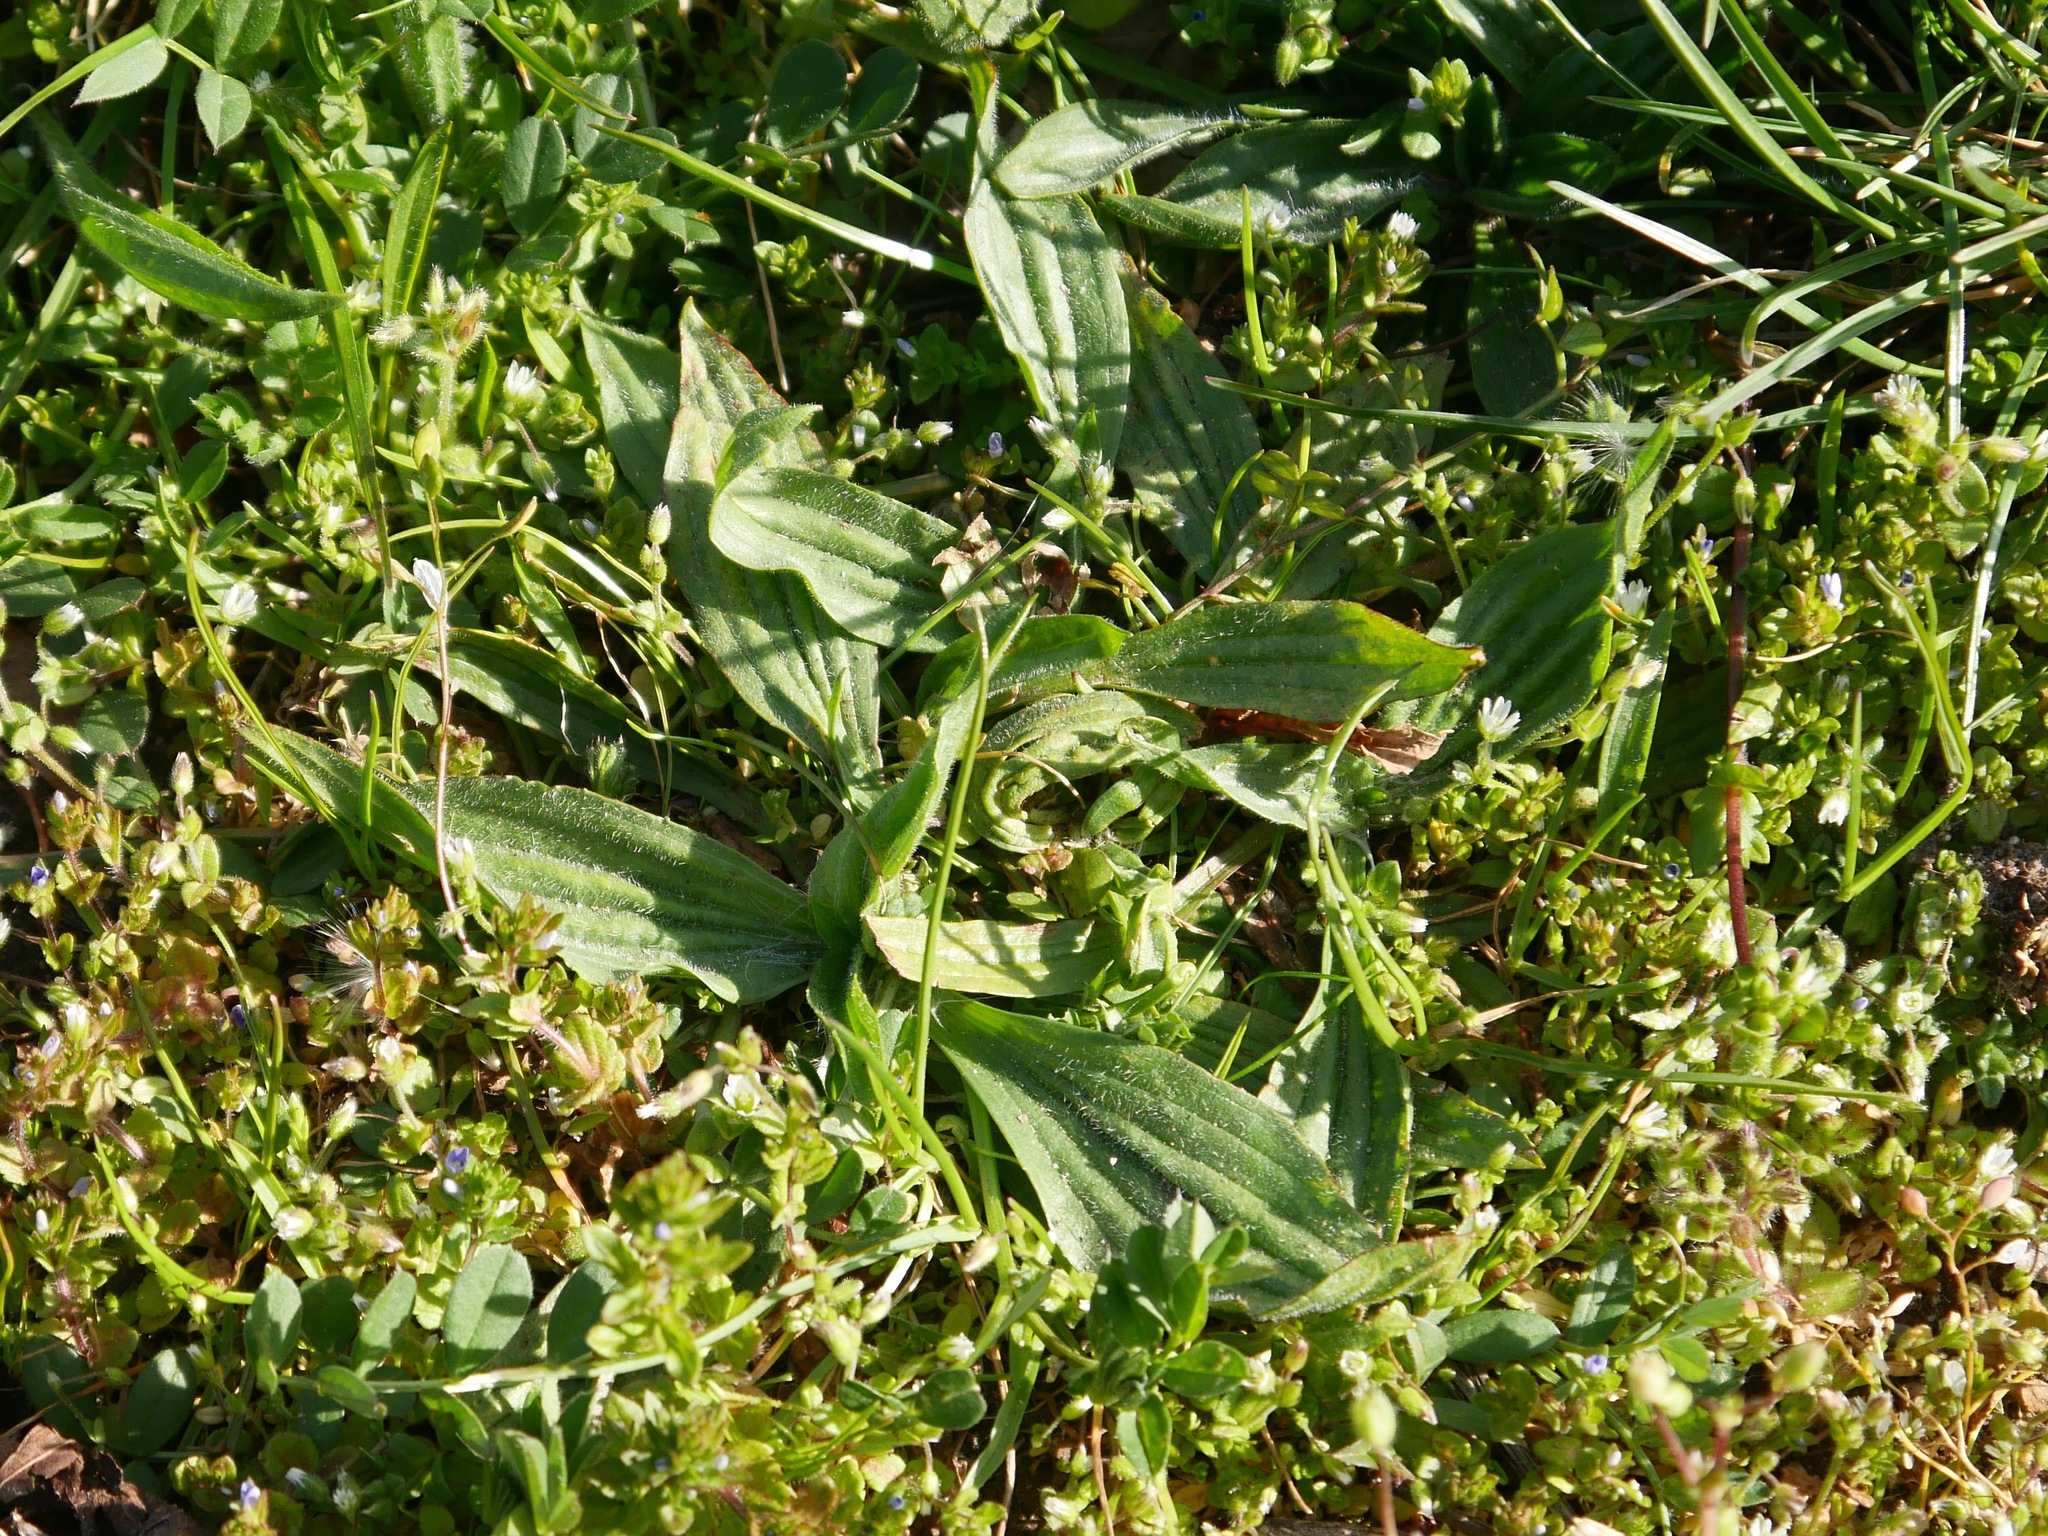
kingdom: Plantae
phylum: Tracheophyta
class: Magnoliopsida
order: Lamiales
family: Plantaginaceae
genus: Plantago
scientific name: Plantago lanceolata
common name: Ribwort plantain
